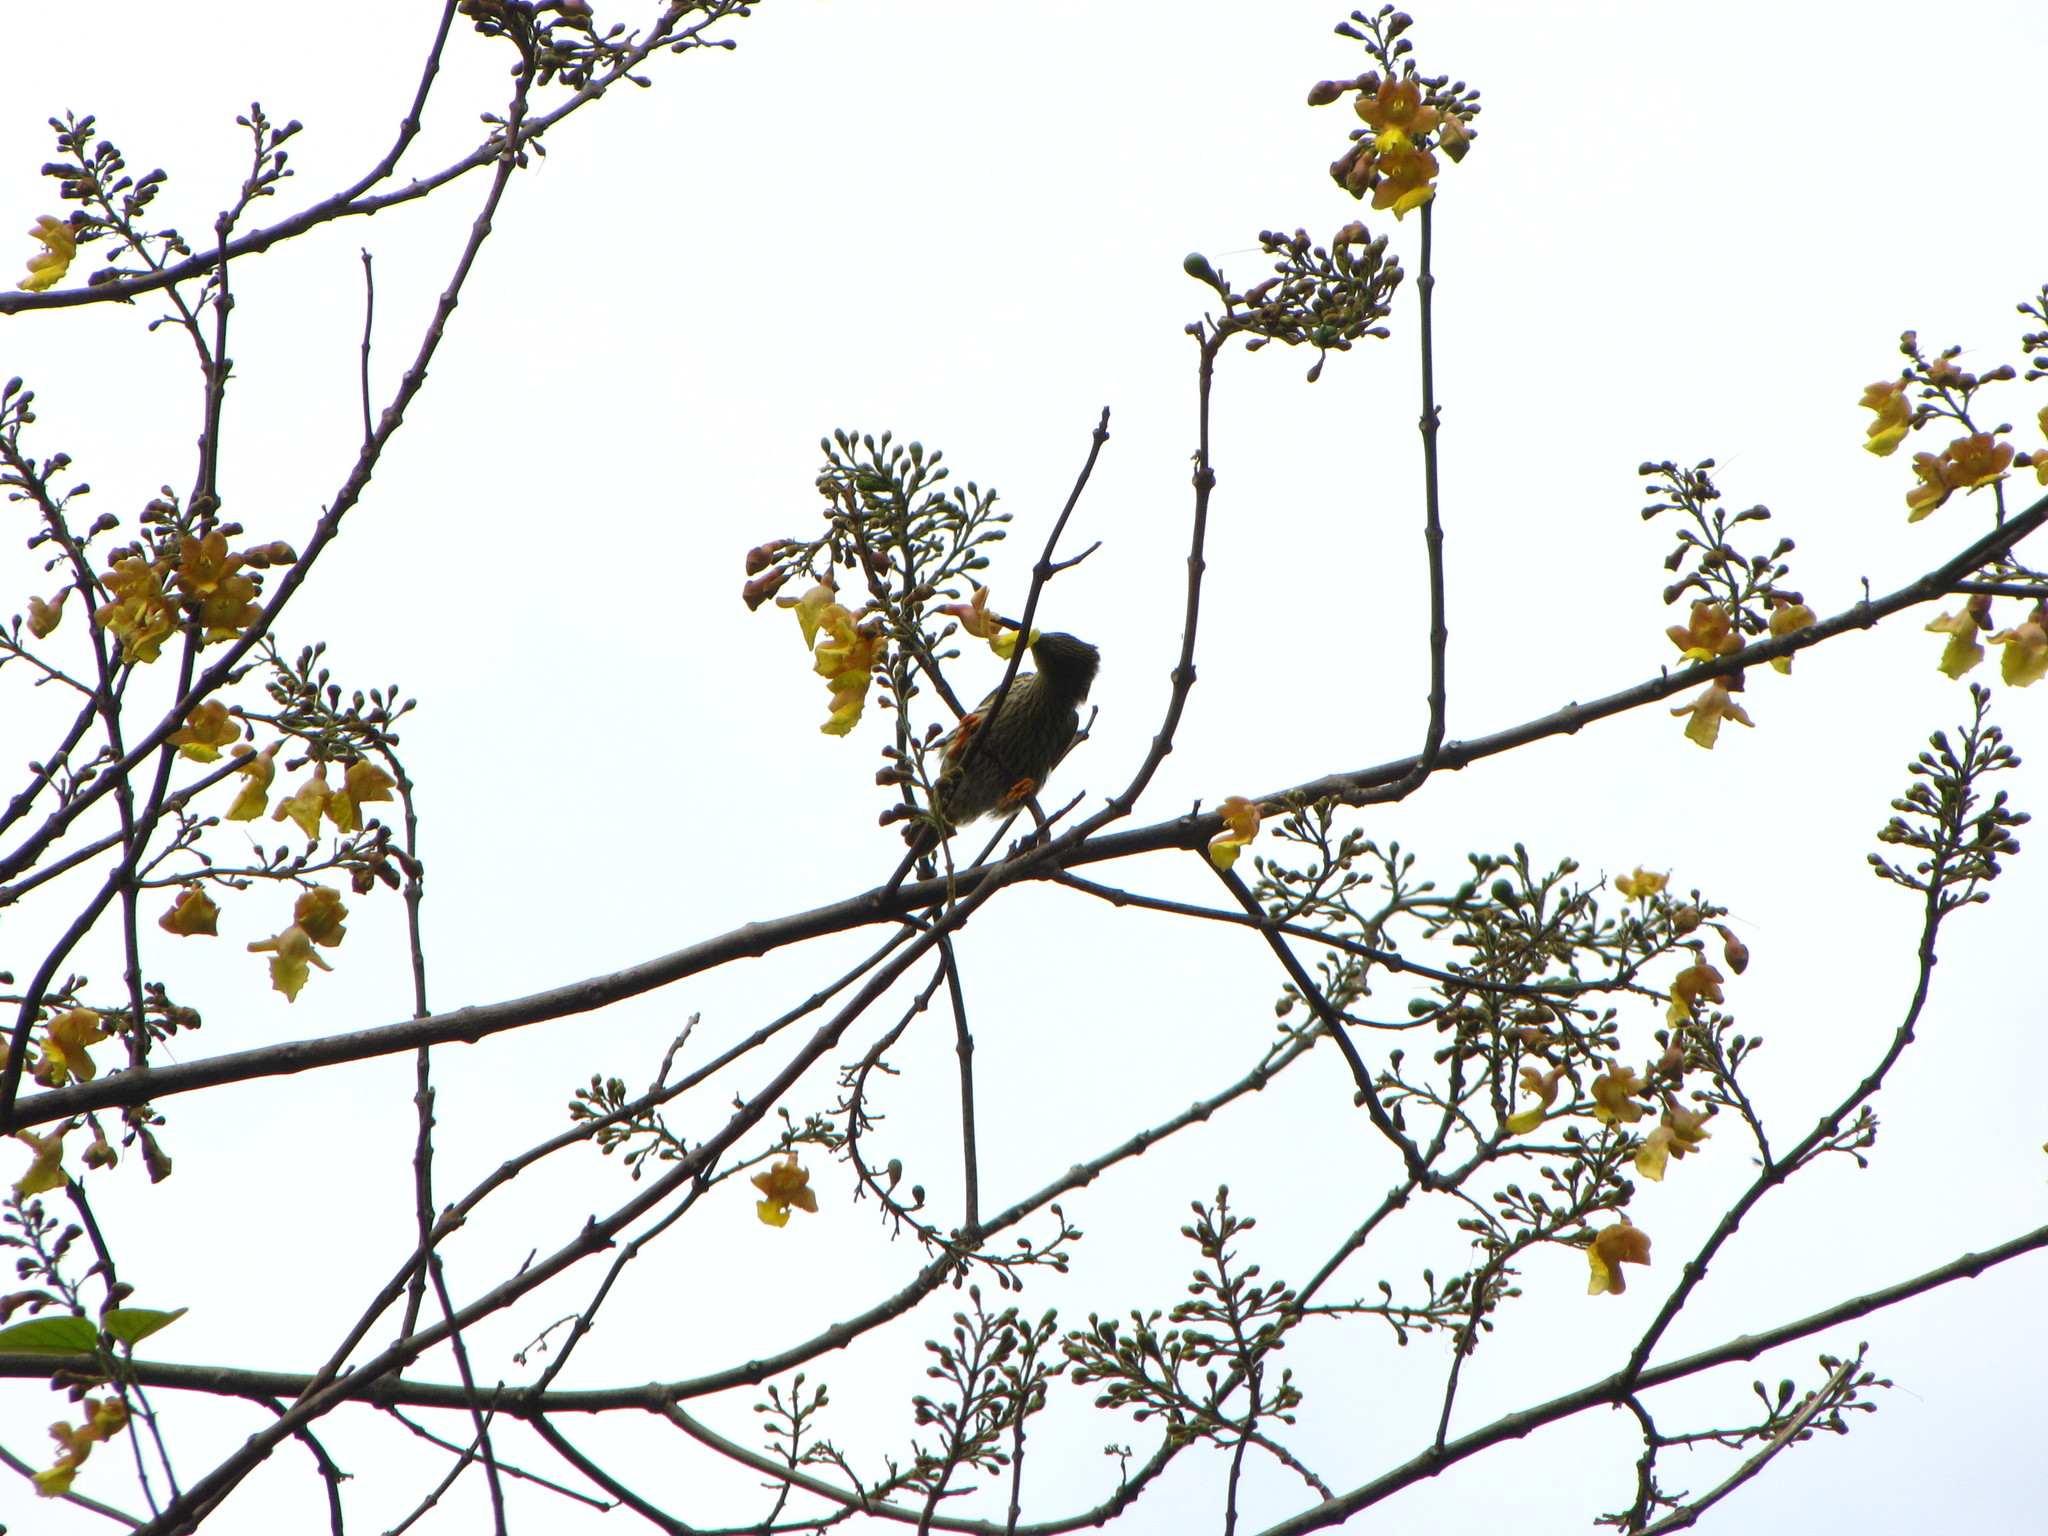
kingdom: Animalia
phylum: Chordata
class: Aves
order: Passeriformes
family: Nectariniidae
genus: Arachnothera
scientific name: Arachnothera magna
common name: Streaked spiderhunter
